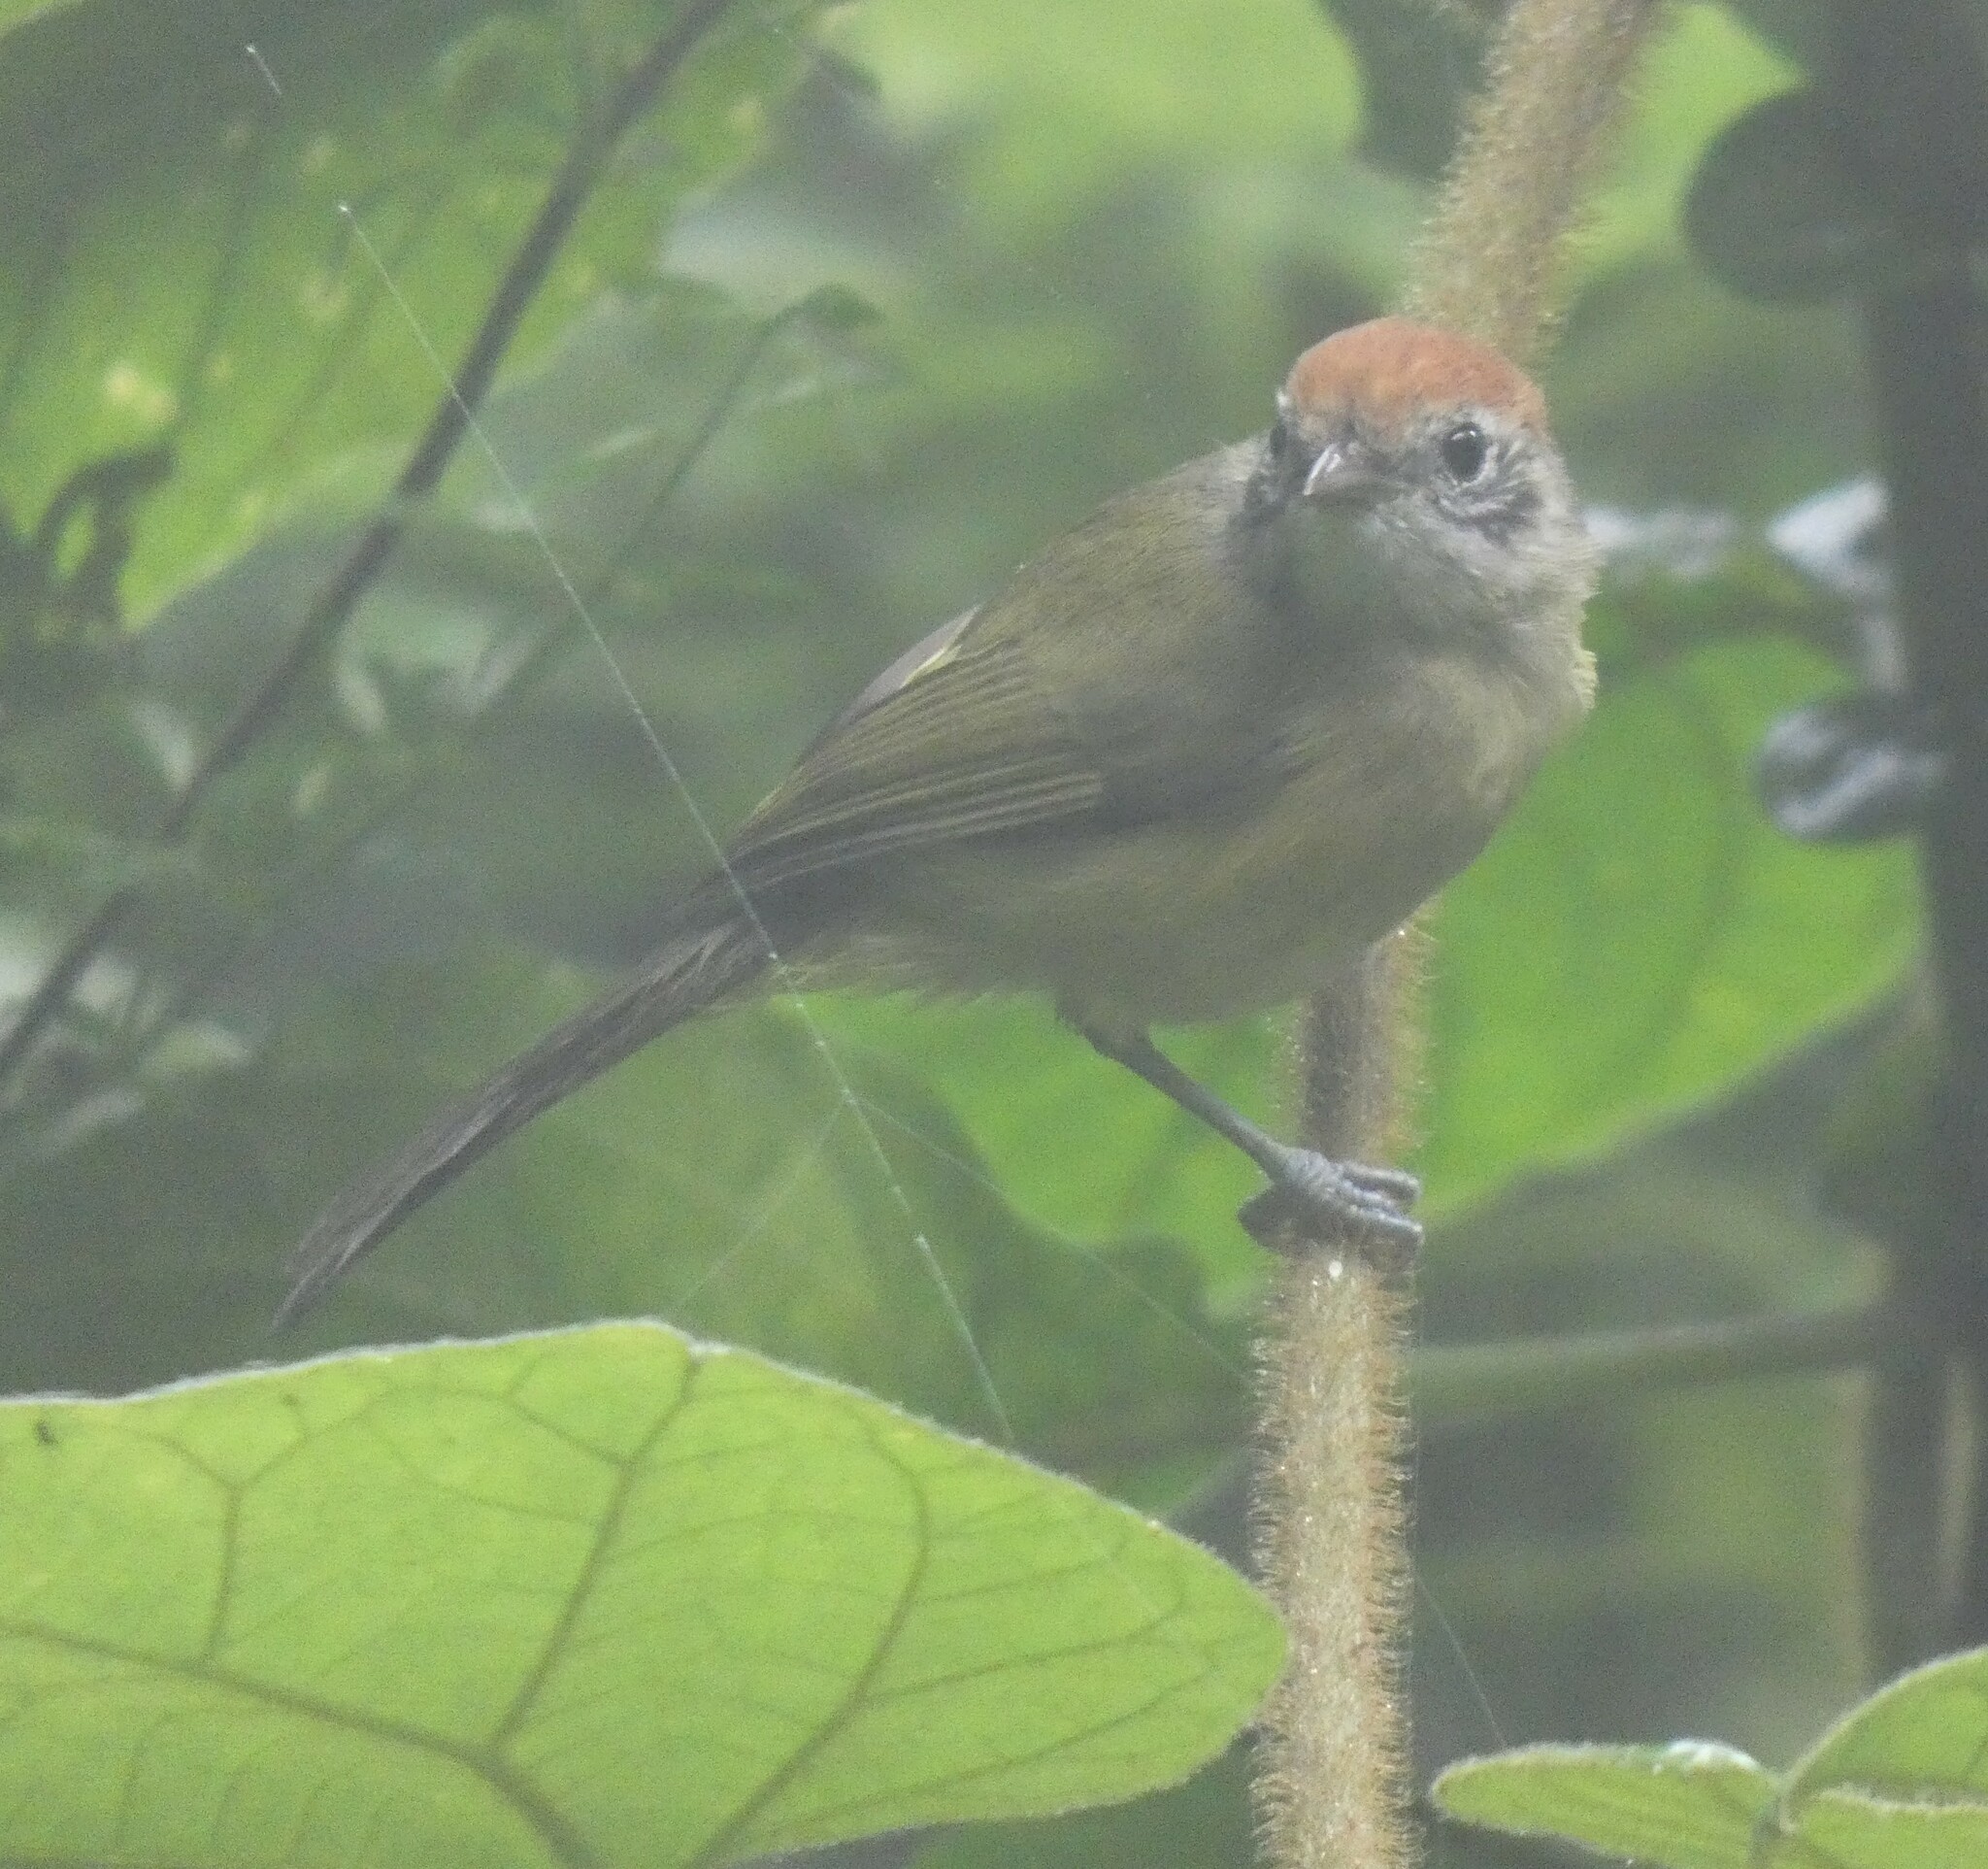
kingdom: Animalia
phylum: Chordata
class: Aves
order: Passeriformes
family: Vireonidae
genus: Hylophilus
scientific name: Hylophilus poicilotis
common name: Rufous-crowned greenlet
